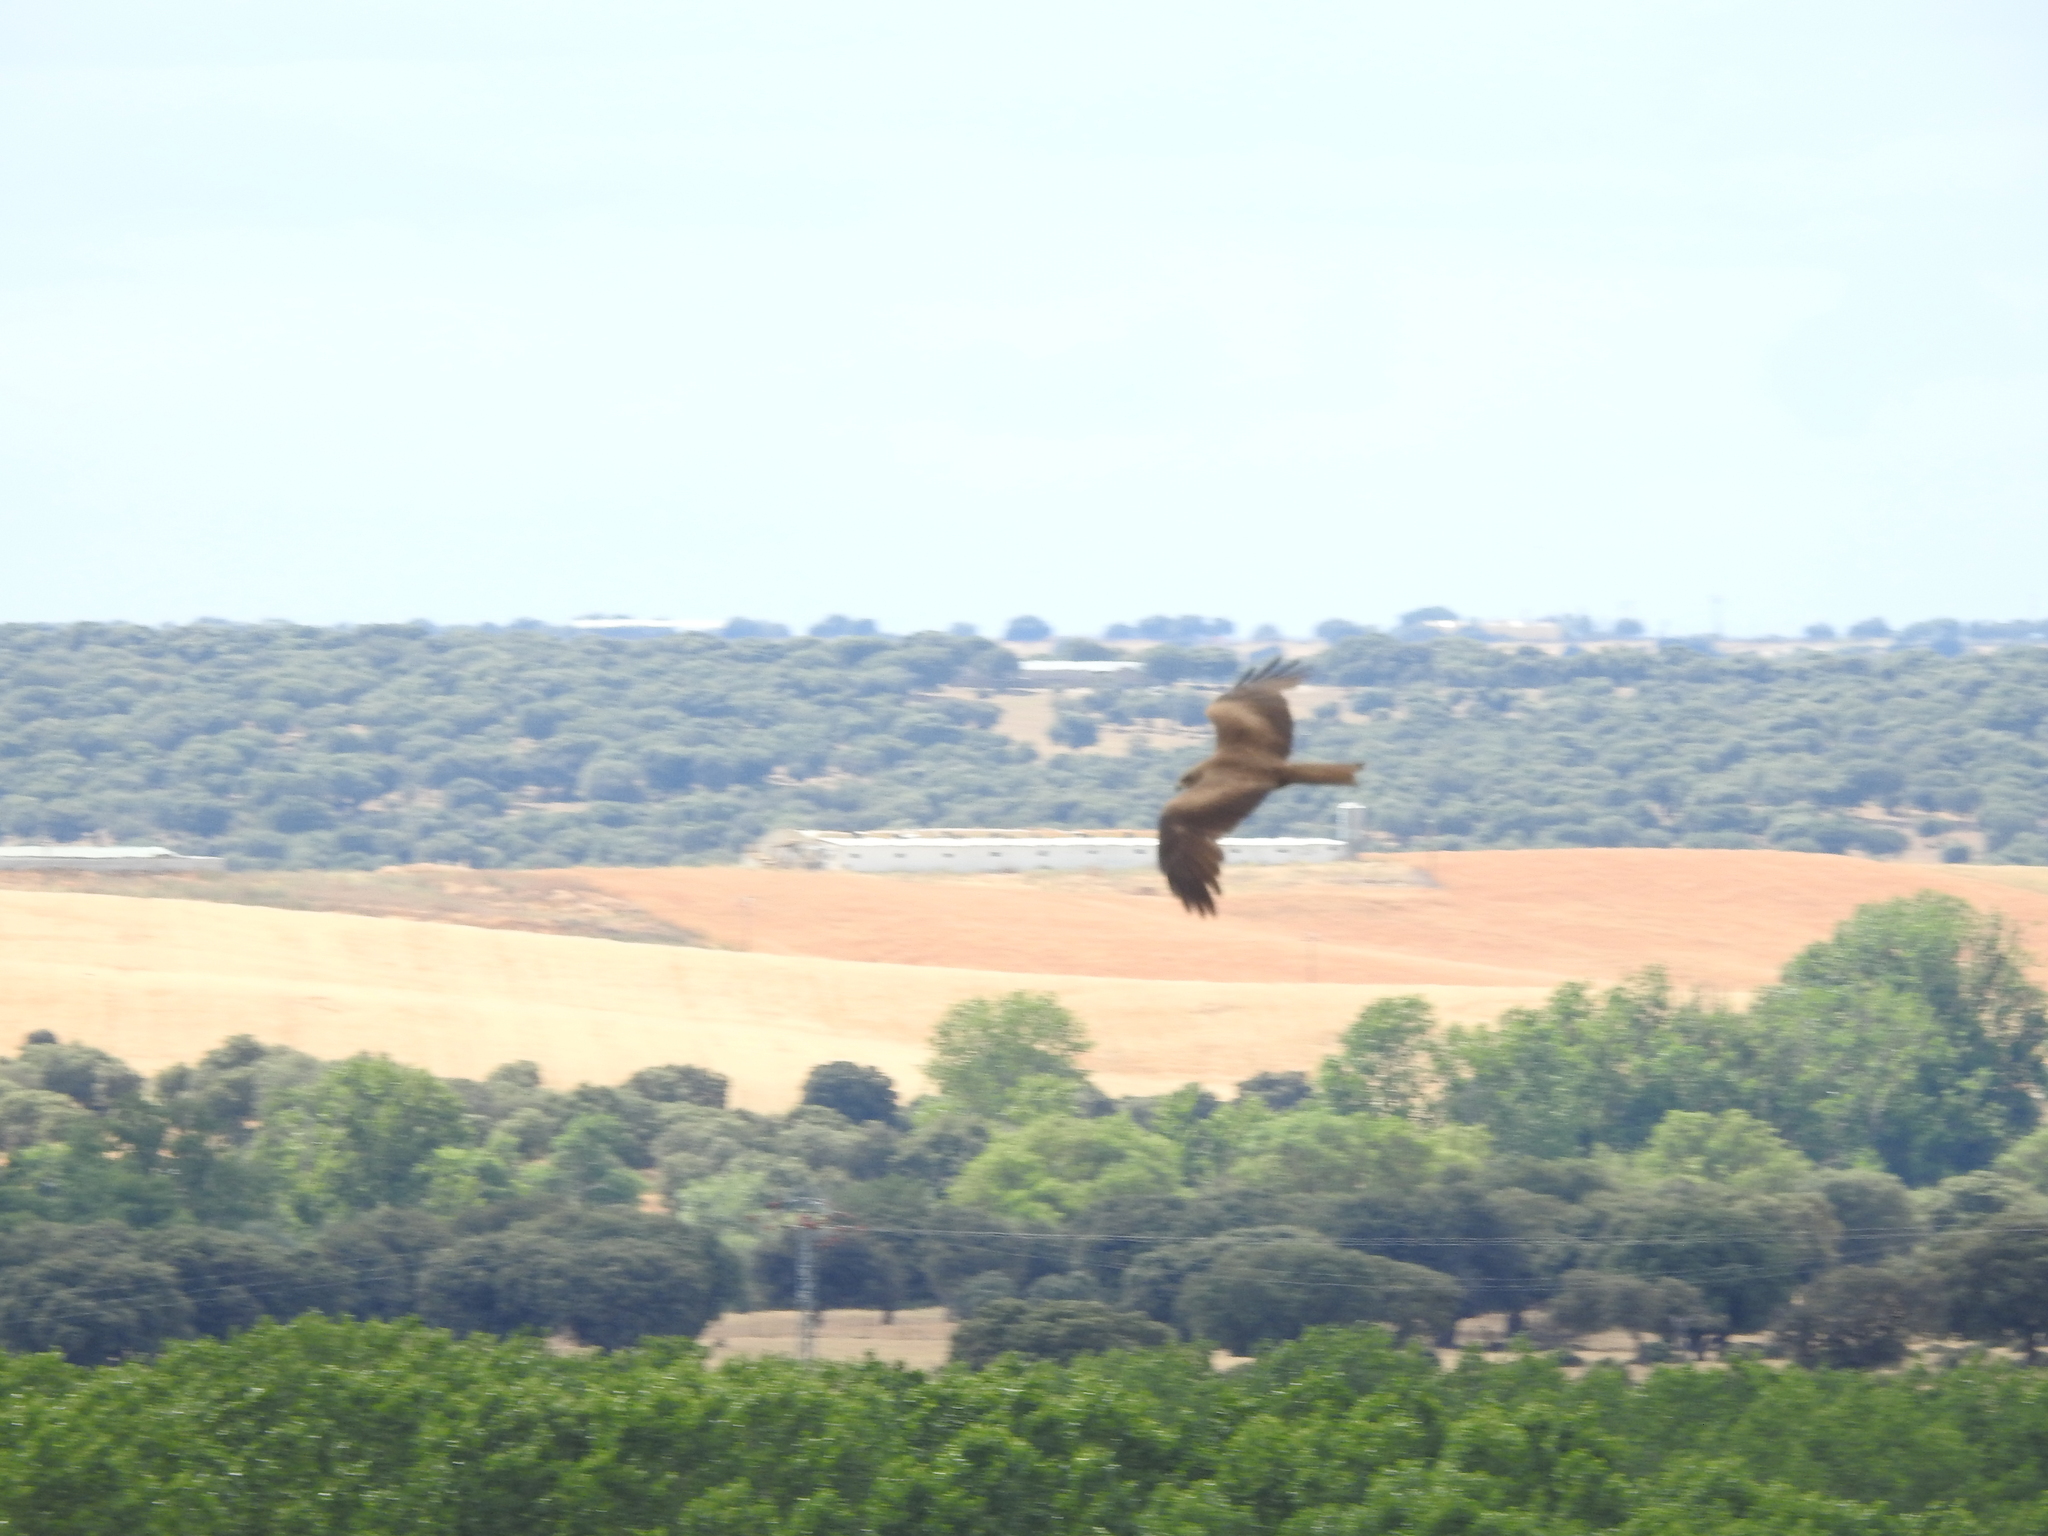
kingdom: Animalia
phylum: Chordata
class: Aves
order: Accipitriformes
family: Accipitridae
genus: Milvus
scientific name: Milvus migrans
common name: Black kite
